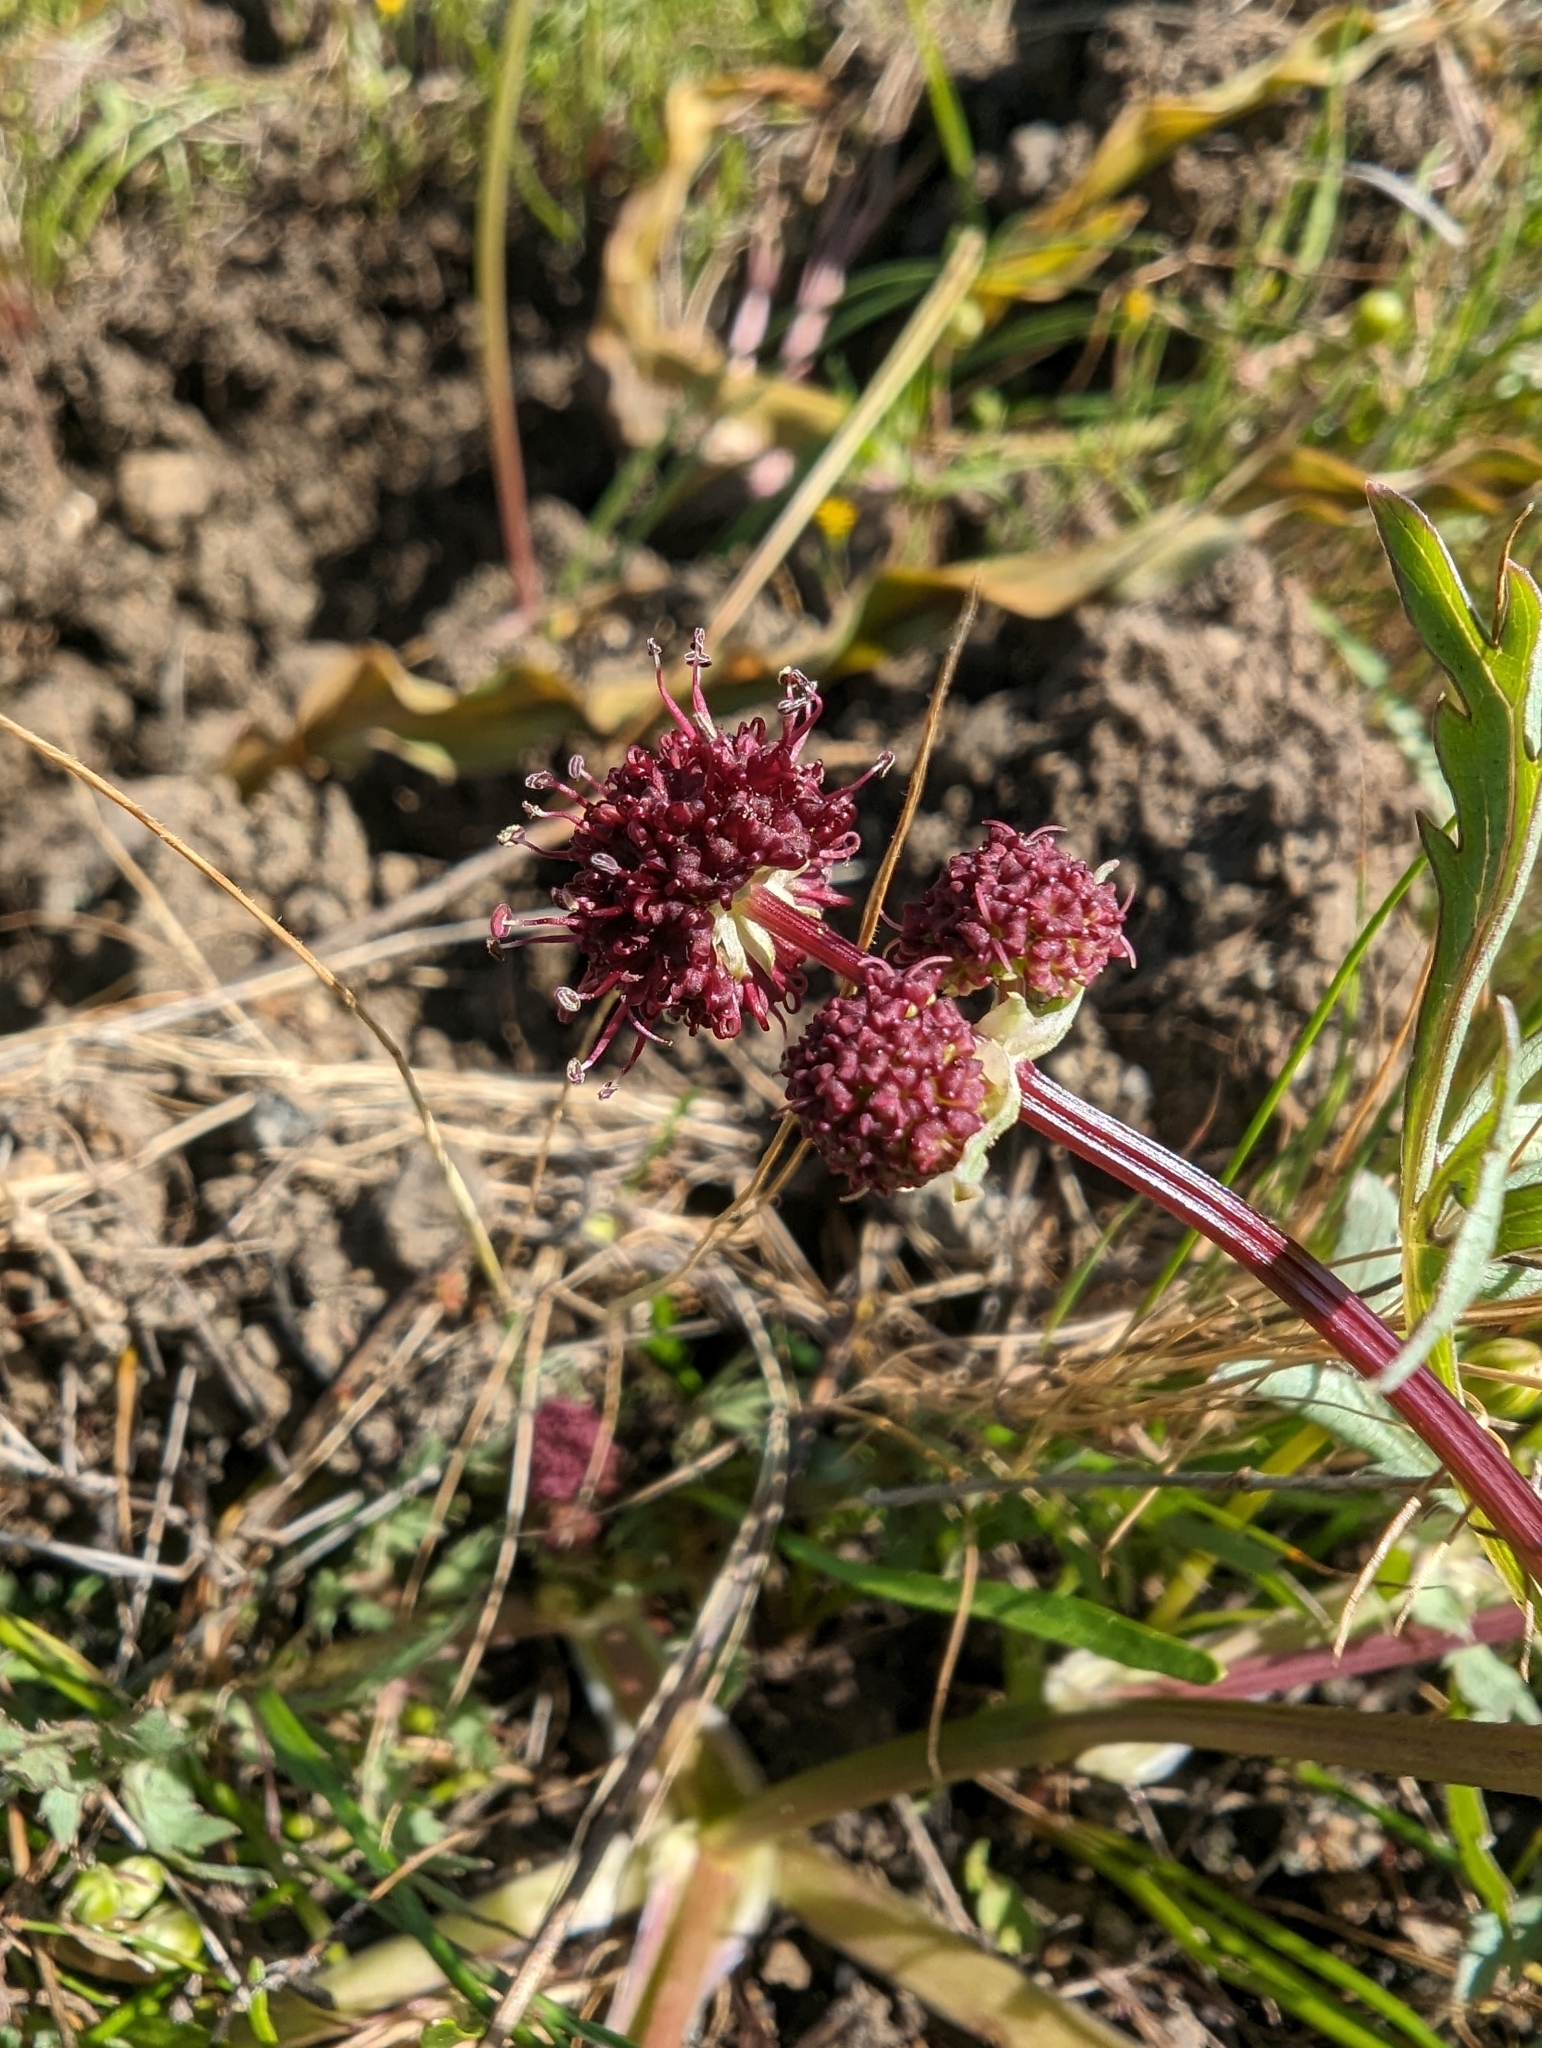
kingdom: Plantae
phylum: Tracheophyta
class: Magnoliopsida
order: Apiales
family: Apiaceae
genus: Sanicula
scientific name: Sanicula bipinnatifida
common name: Shoe-buttons
